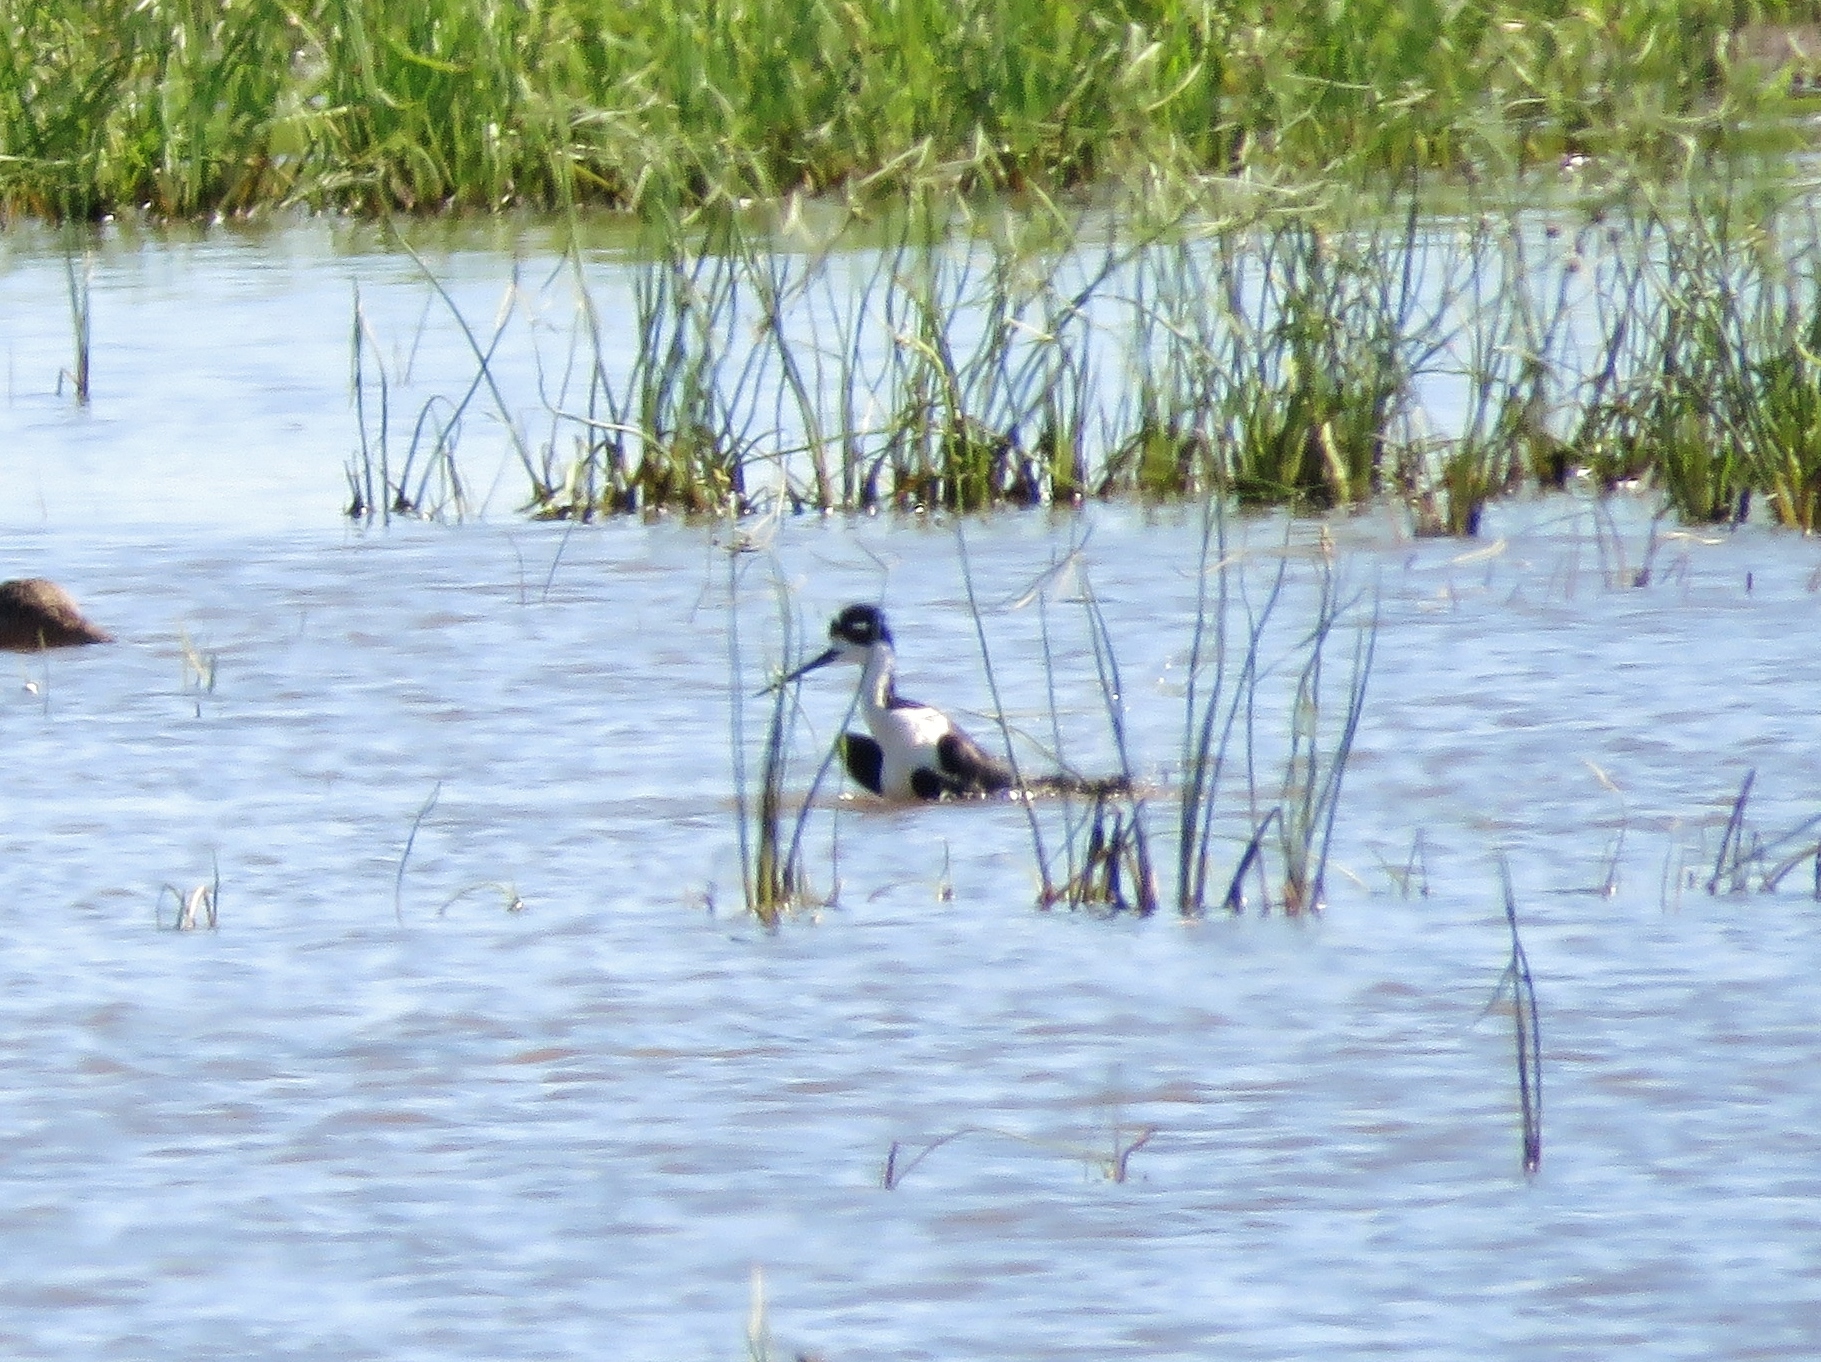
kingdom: Animalia
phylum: Chordata
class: Aves
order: Charadriiformes
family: Recurvirostridae
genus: Himantopus
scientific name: Himantopus mexicanus
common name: Black-necked stilt
